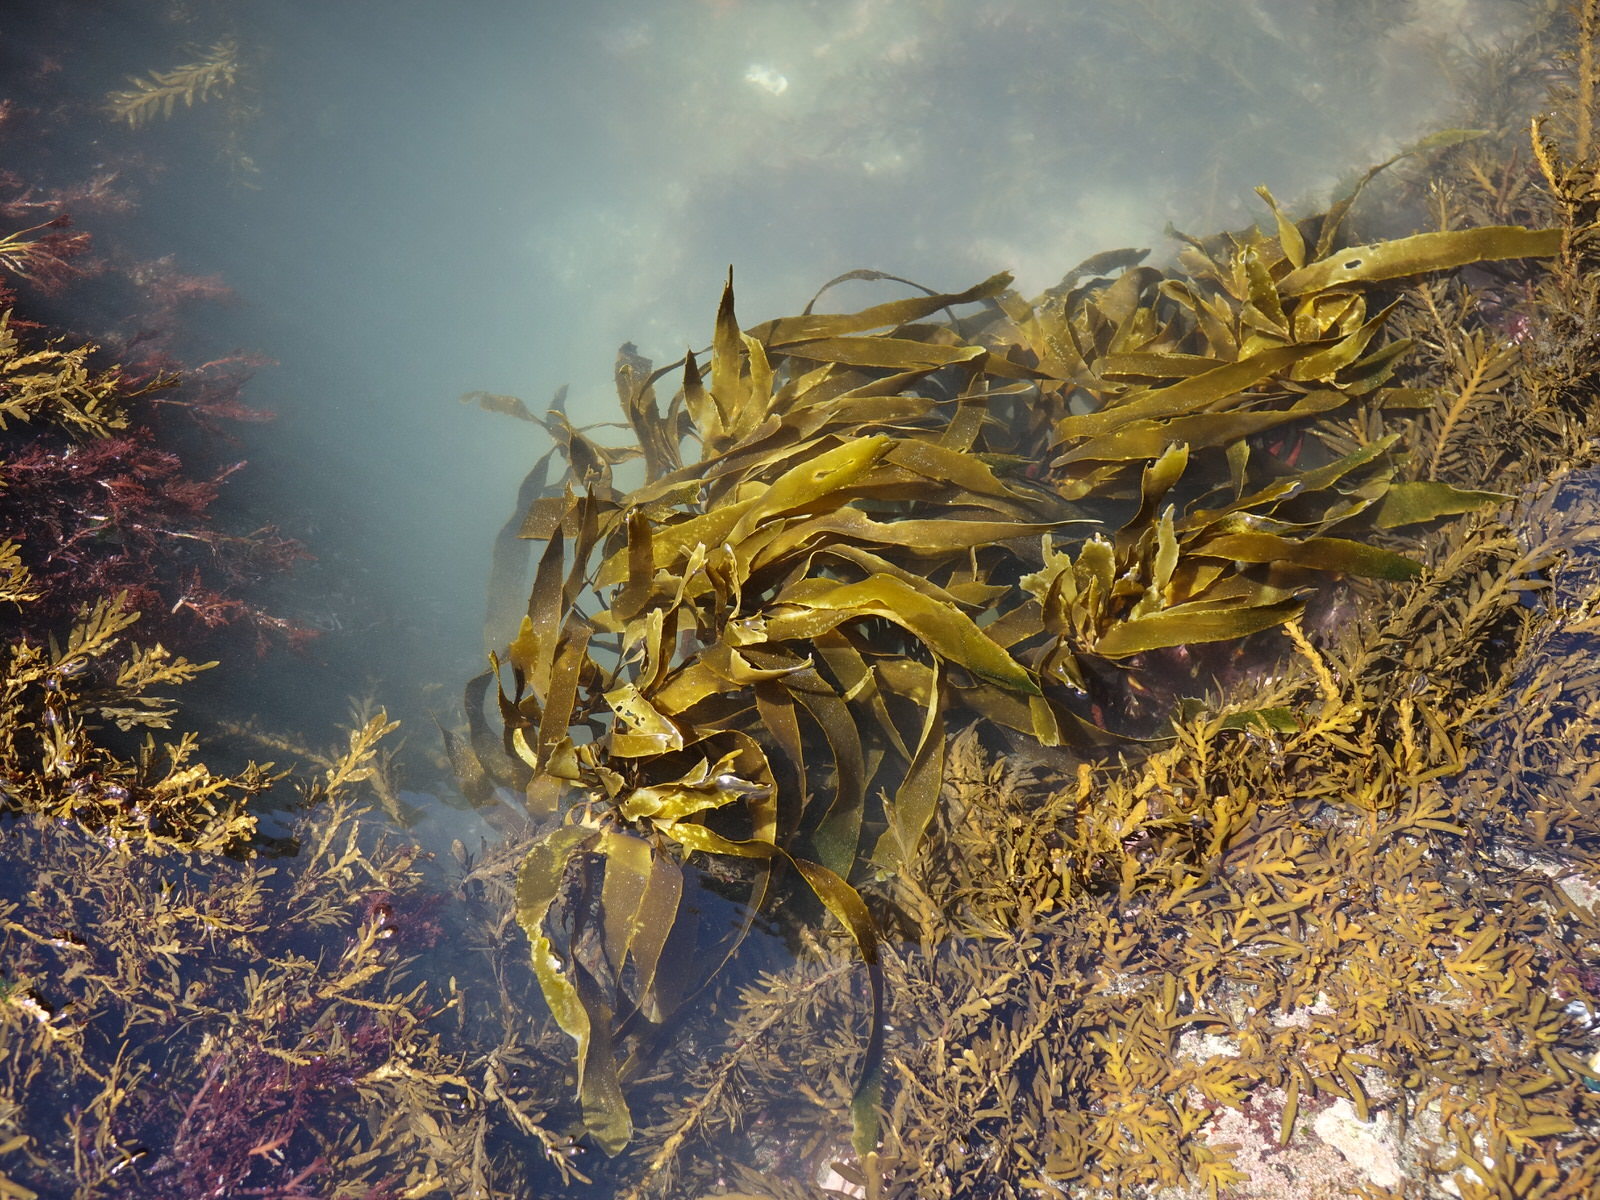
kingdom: Chromista
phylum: Ochrophyta
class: Phaeophyceae
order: Laminariales
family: Lessoniaceae
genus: Lessonia
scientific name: Lessonia
